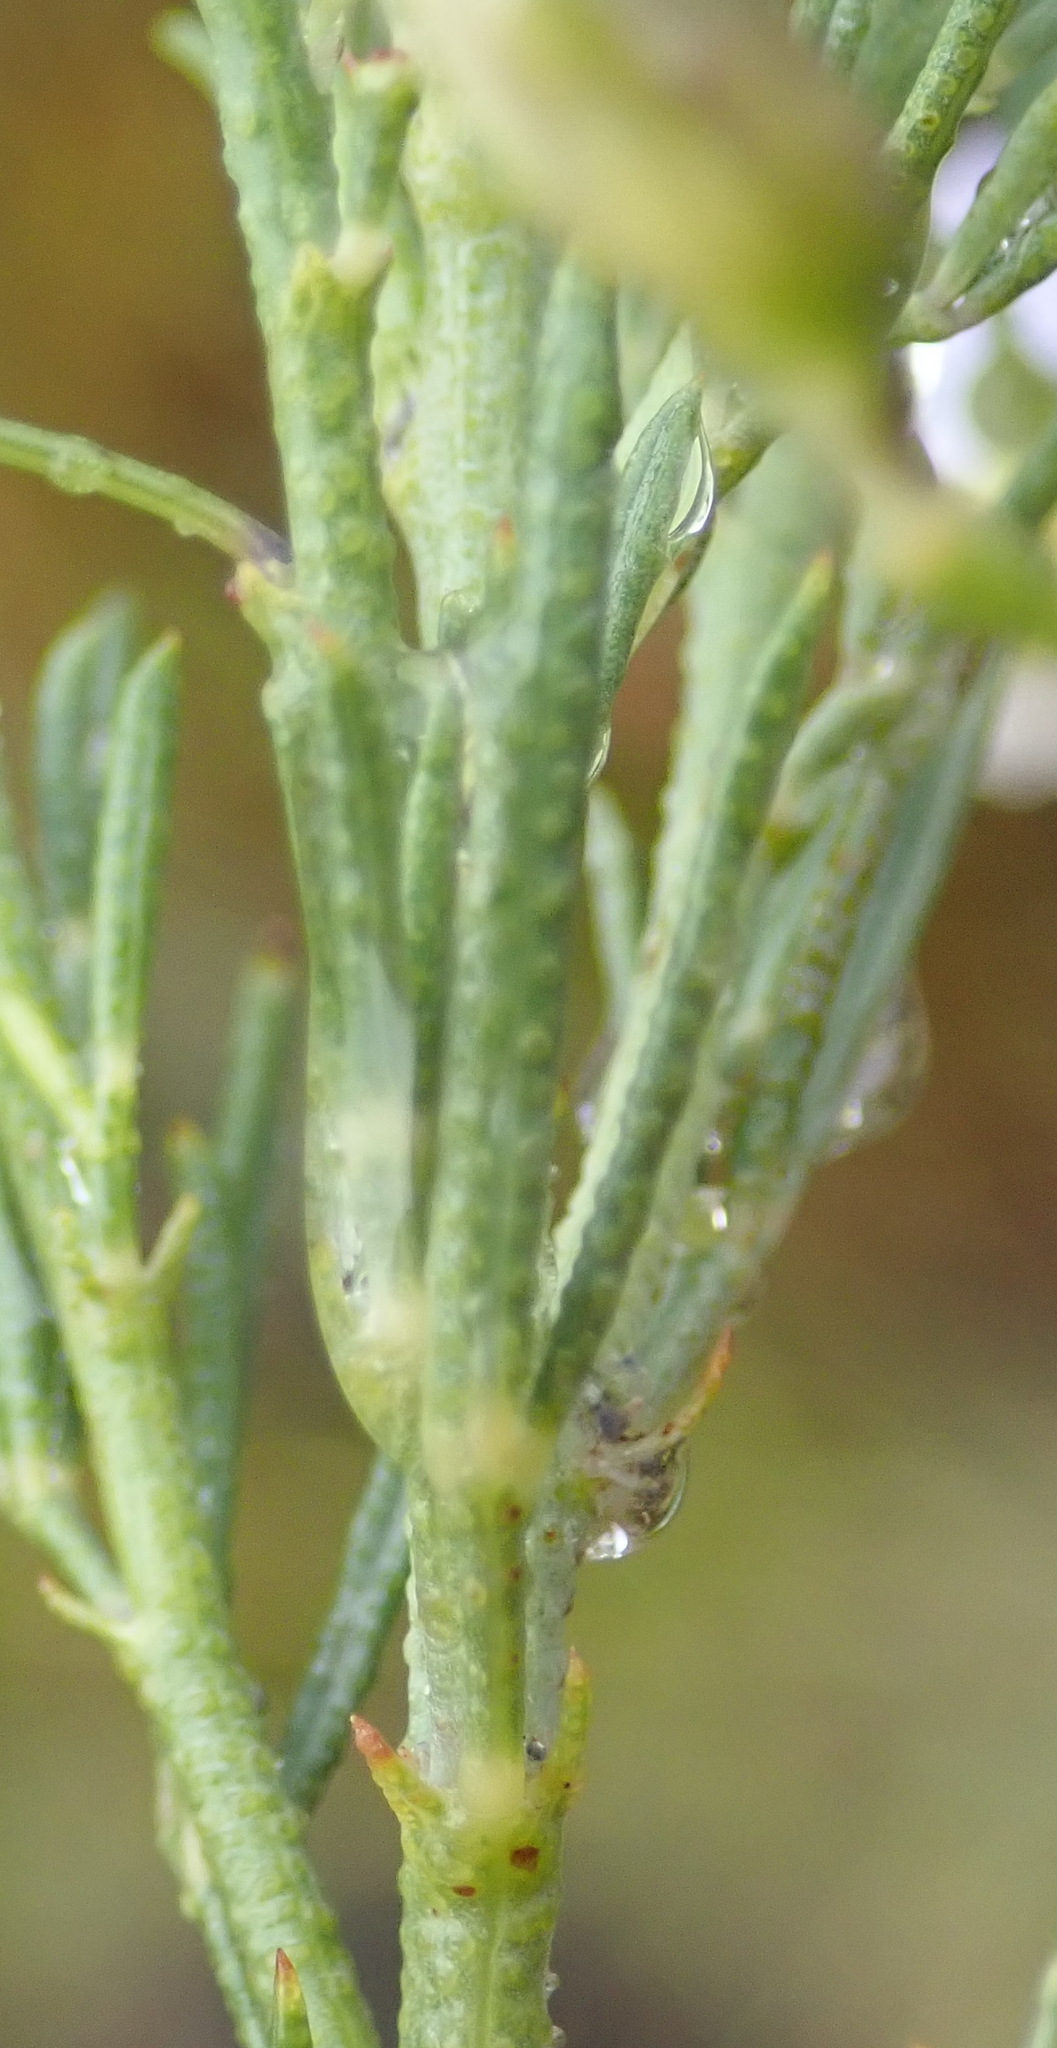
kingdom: Plantae
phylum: Tracheophyta
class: Magnoliopsida
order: Fabales
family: Fabaceae
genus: Psoralea
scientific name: Psoralea
